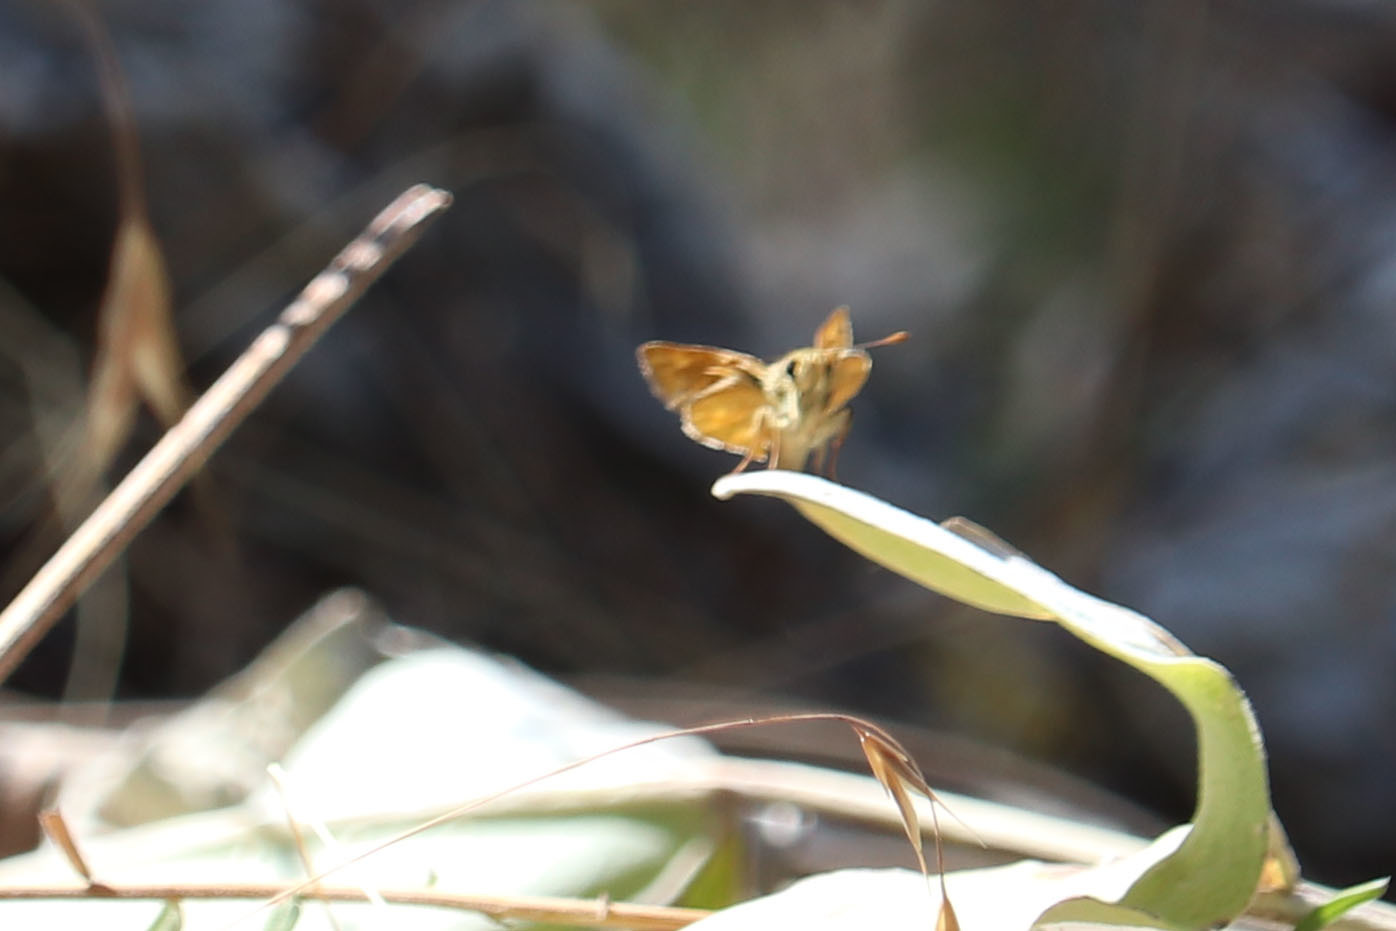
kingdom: Animalia
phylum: Arthropoda
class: Insecta
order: Lepidoptera
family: Hesperiidae
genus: Ochlodes
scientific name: Ochlodes sylvanoides
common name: Woodland skipper
